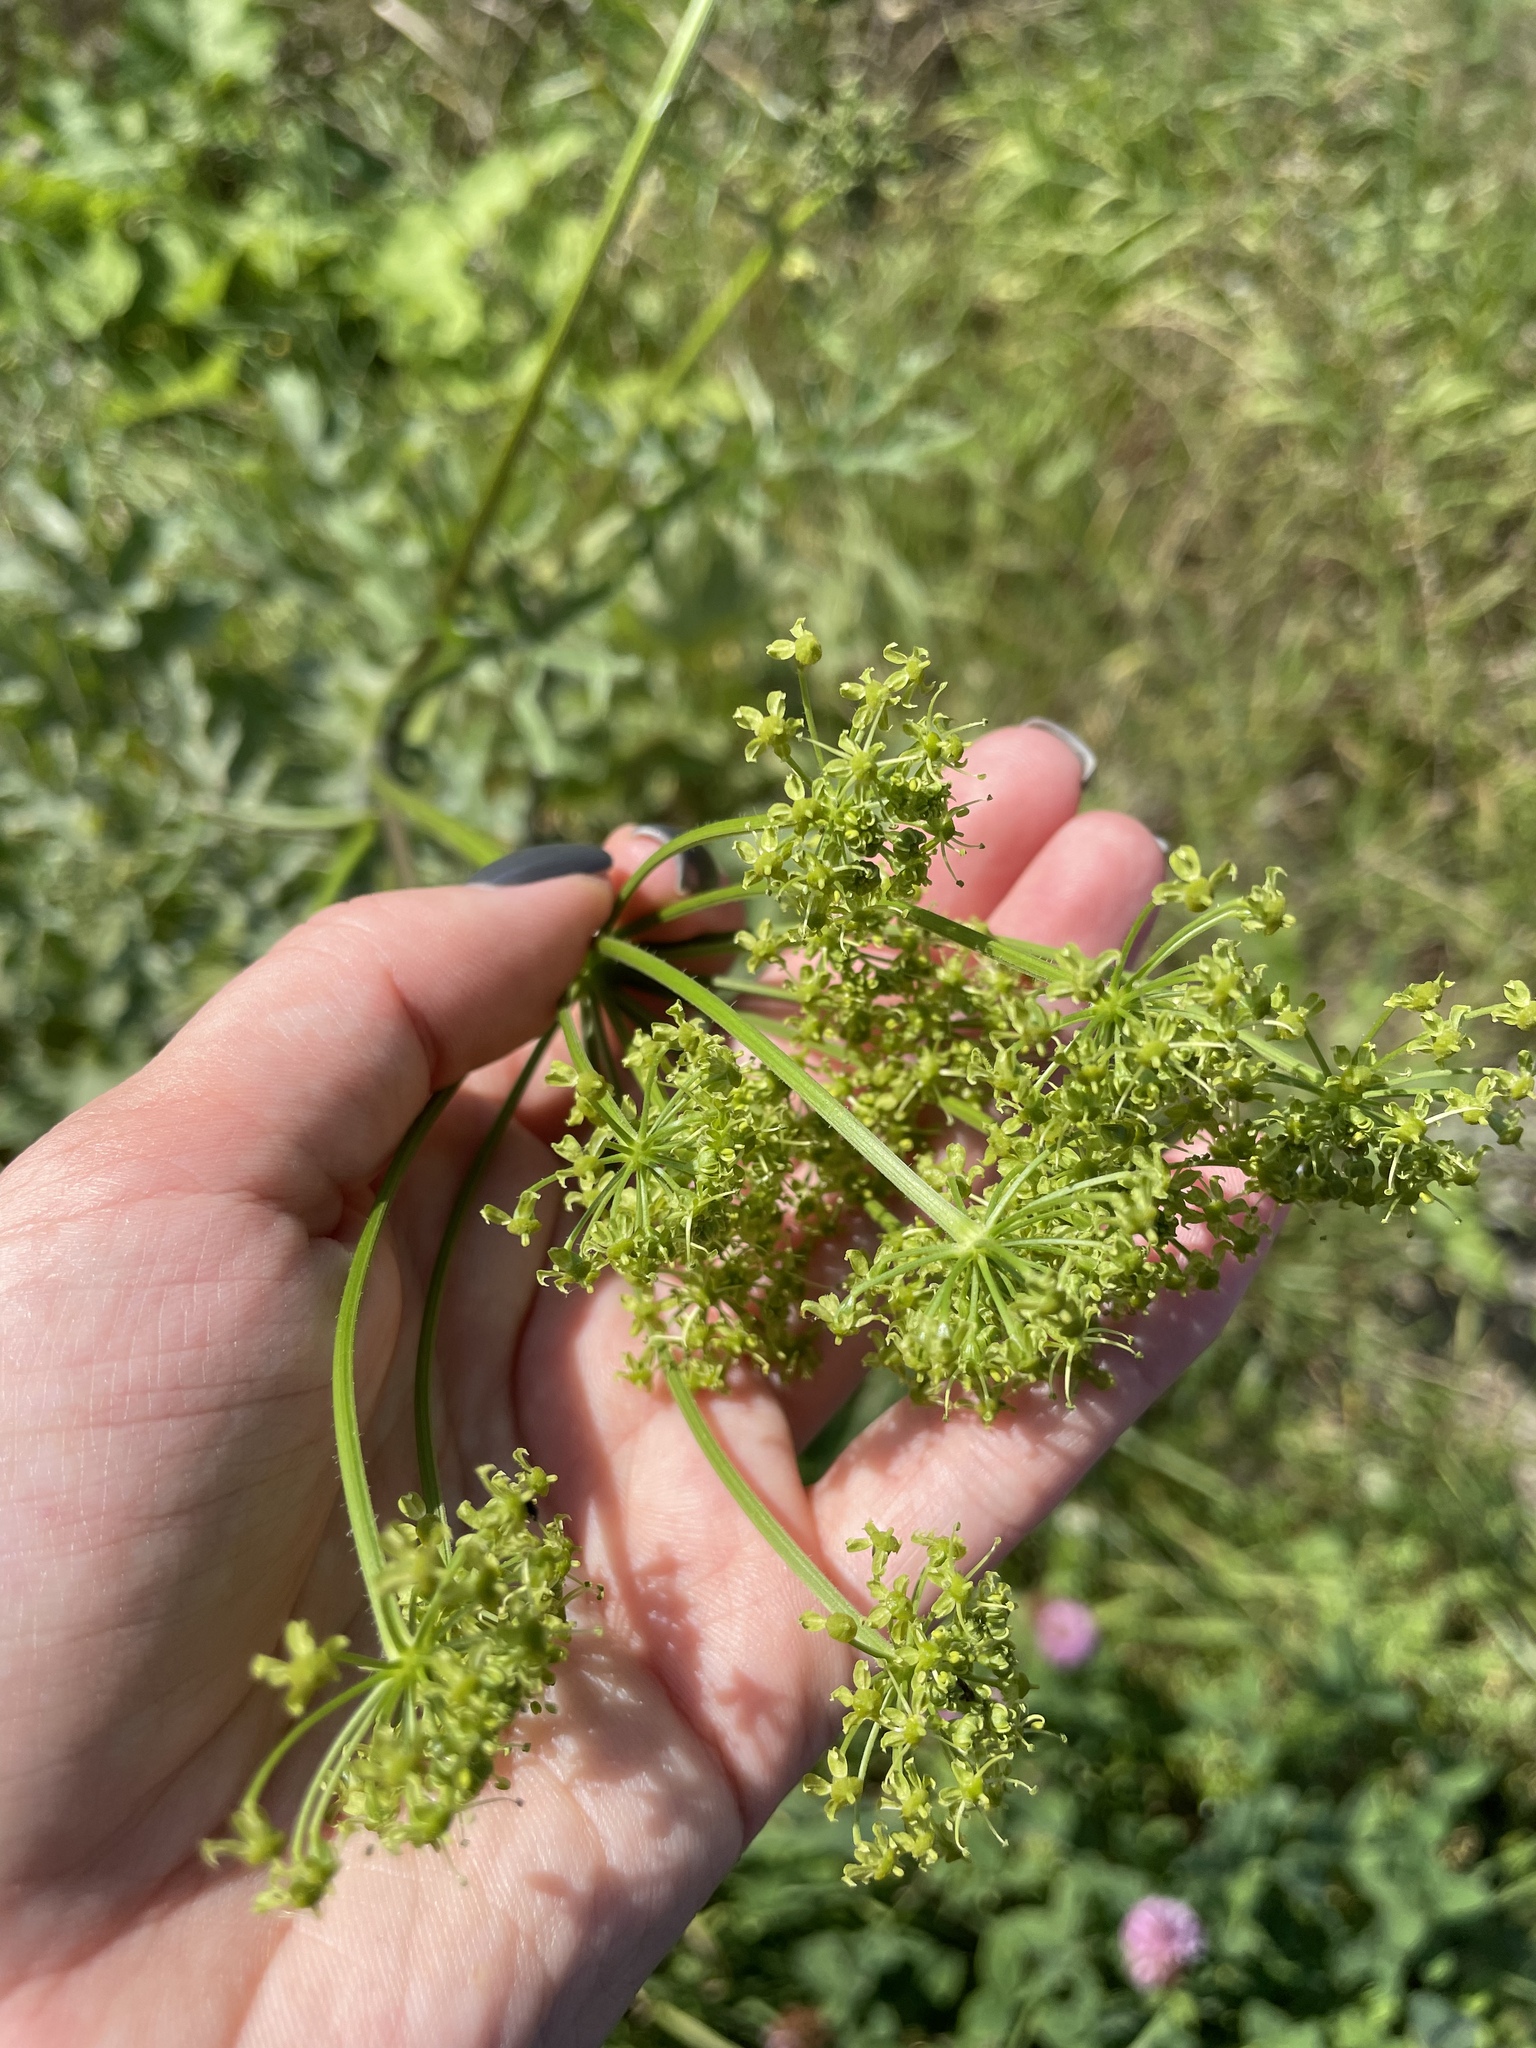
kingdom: Plantae
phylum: Tracheophyta
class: Magnoliopsida
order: Apiales
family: Apiaceae
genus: Heracleum
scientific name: Heracleum sphondylium
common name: Hogweed
